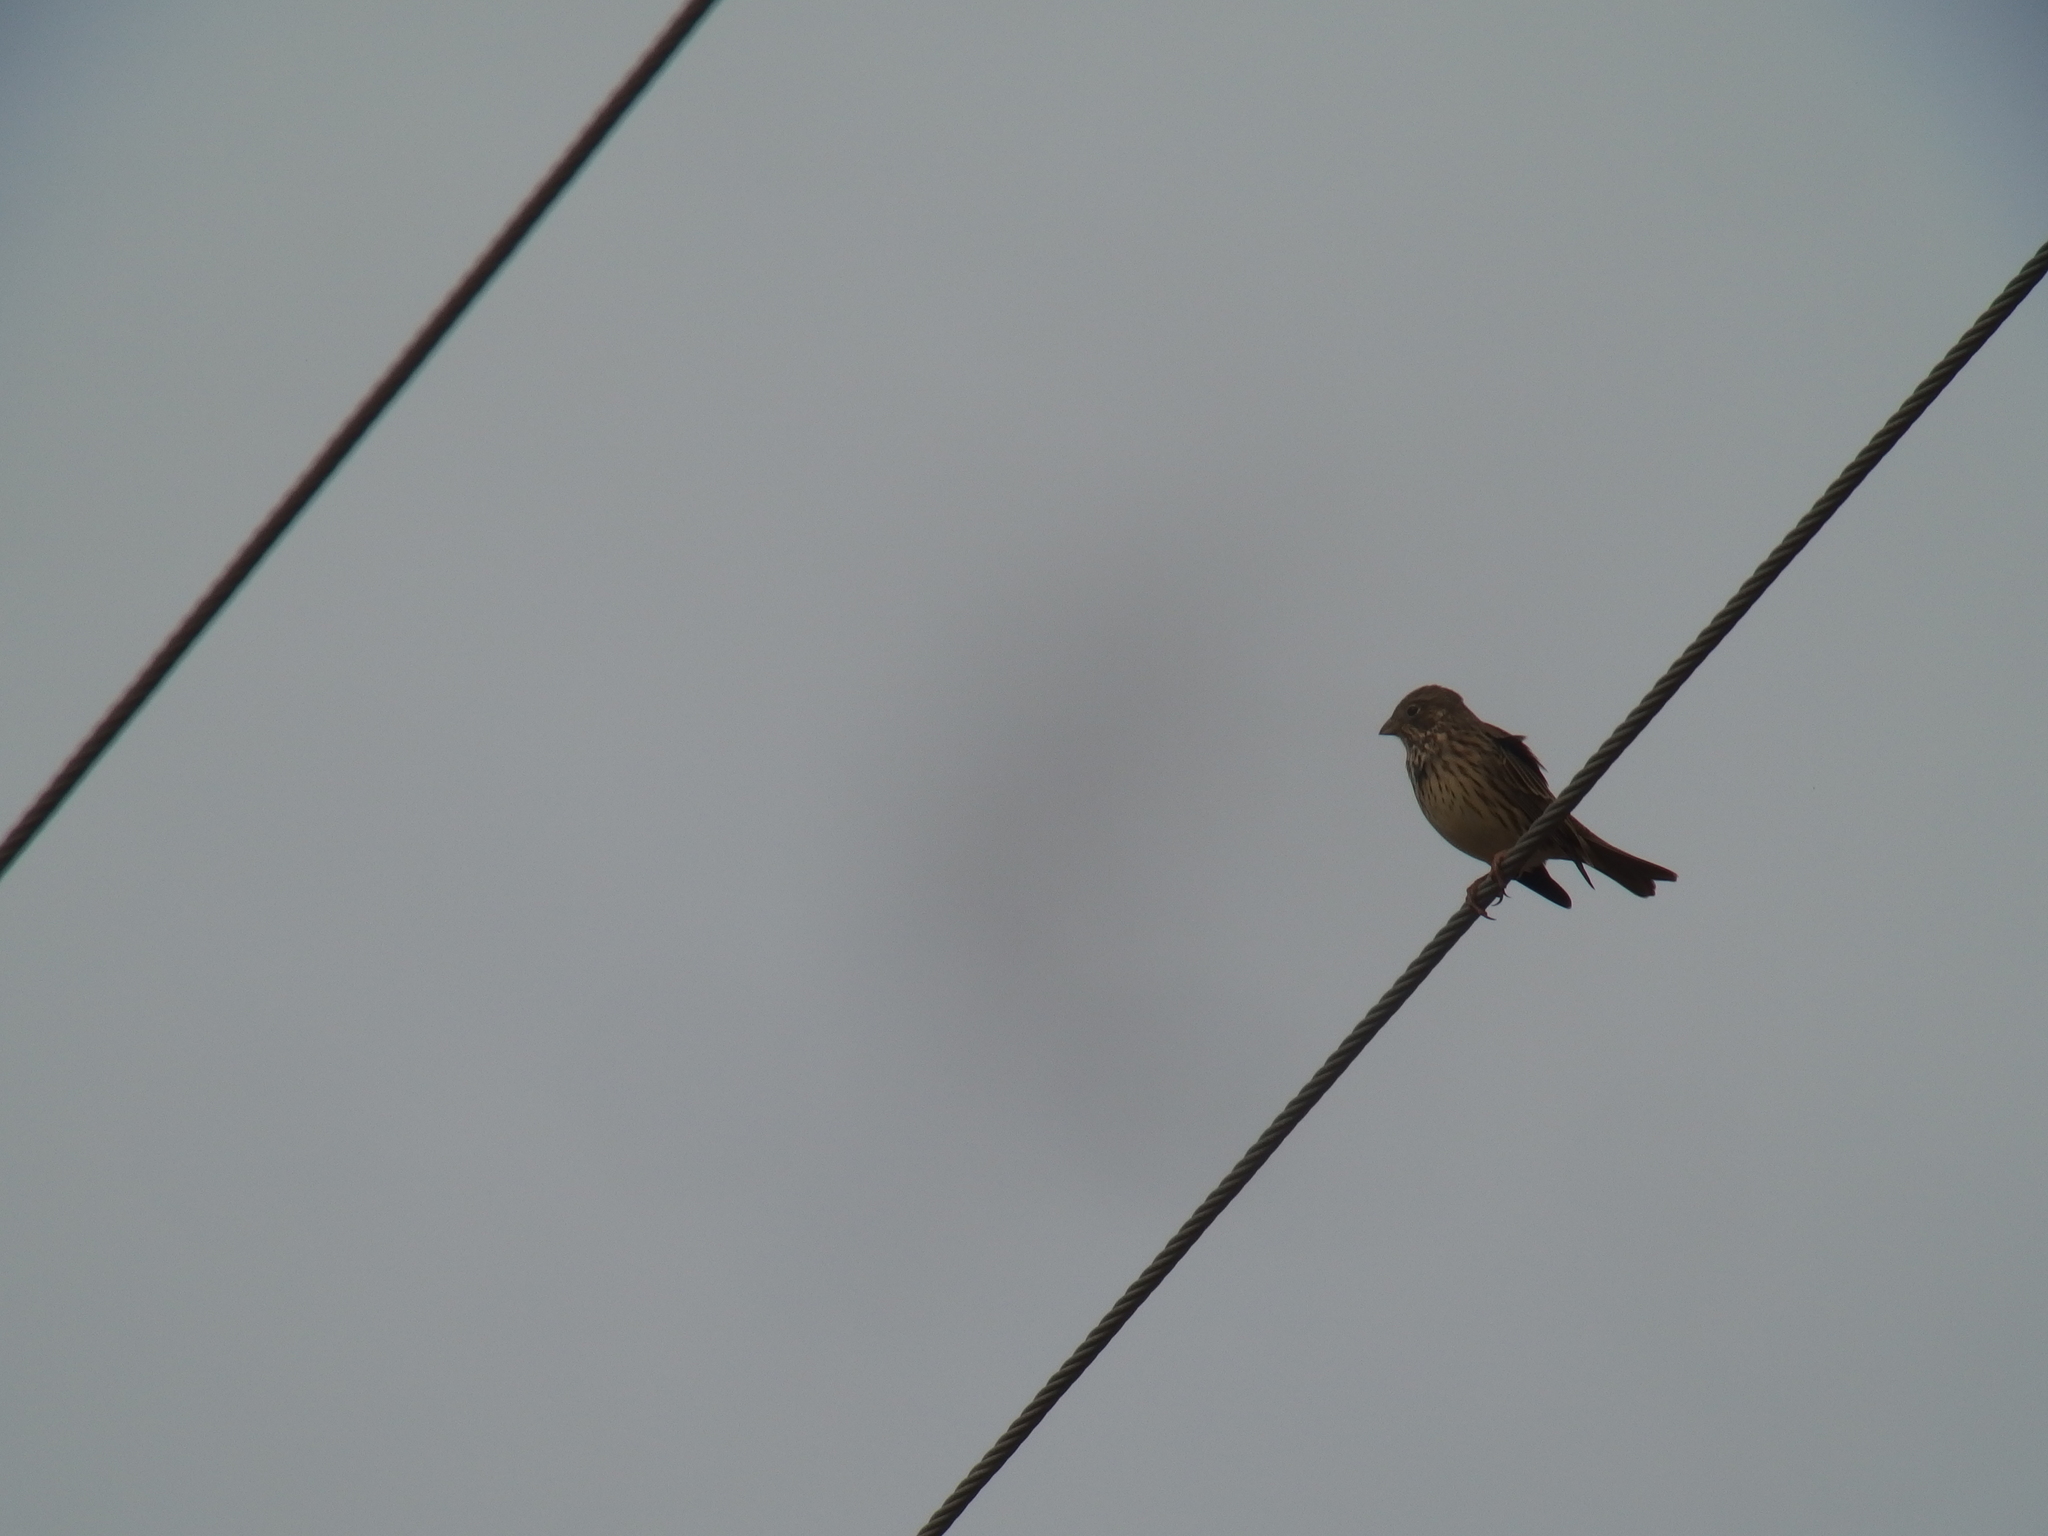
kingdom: Animalia
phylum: Chordata
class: Aves
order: Passeriformes
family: Emberizidae
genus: Emberiza
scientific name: Emberiza calandra
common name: Corn bunting
